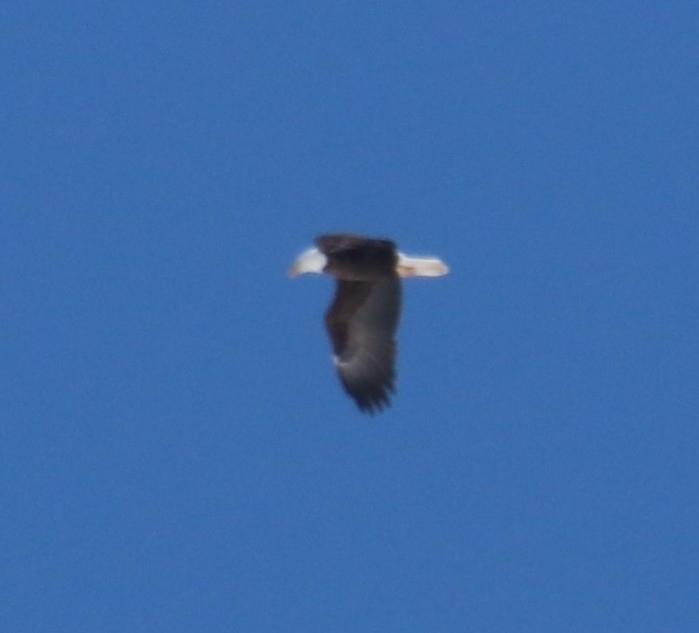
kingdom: Animalia
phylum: Chordata
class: Aves
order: Accipitriformes
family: Accipitridae
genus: Haliaeetus
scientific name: Haliaeetus leucocephalus
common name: Bald eagle
